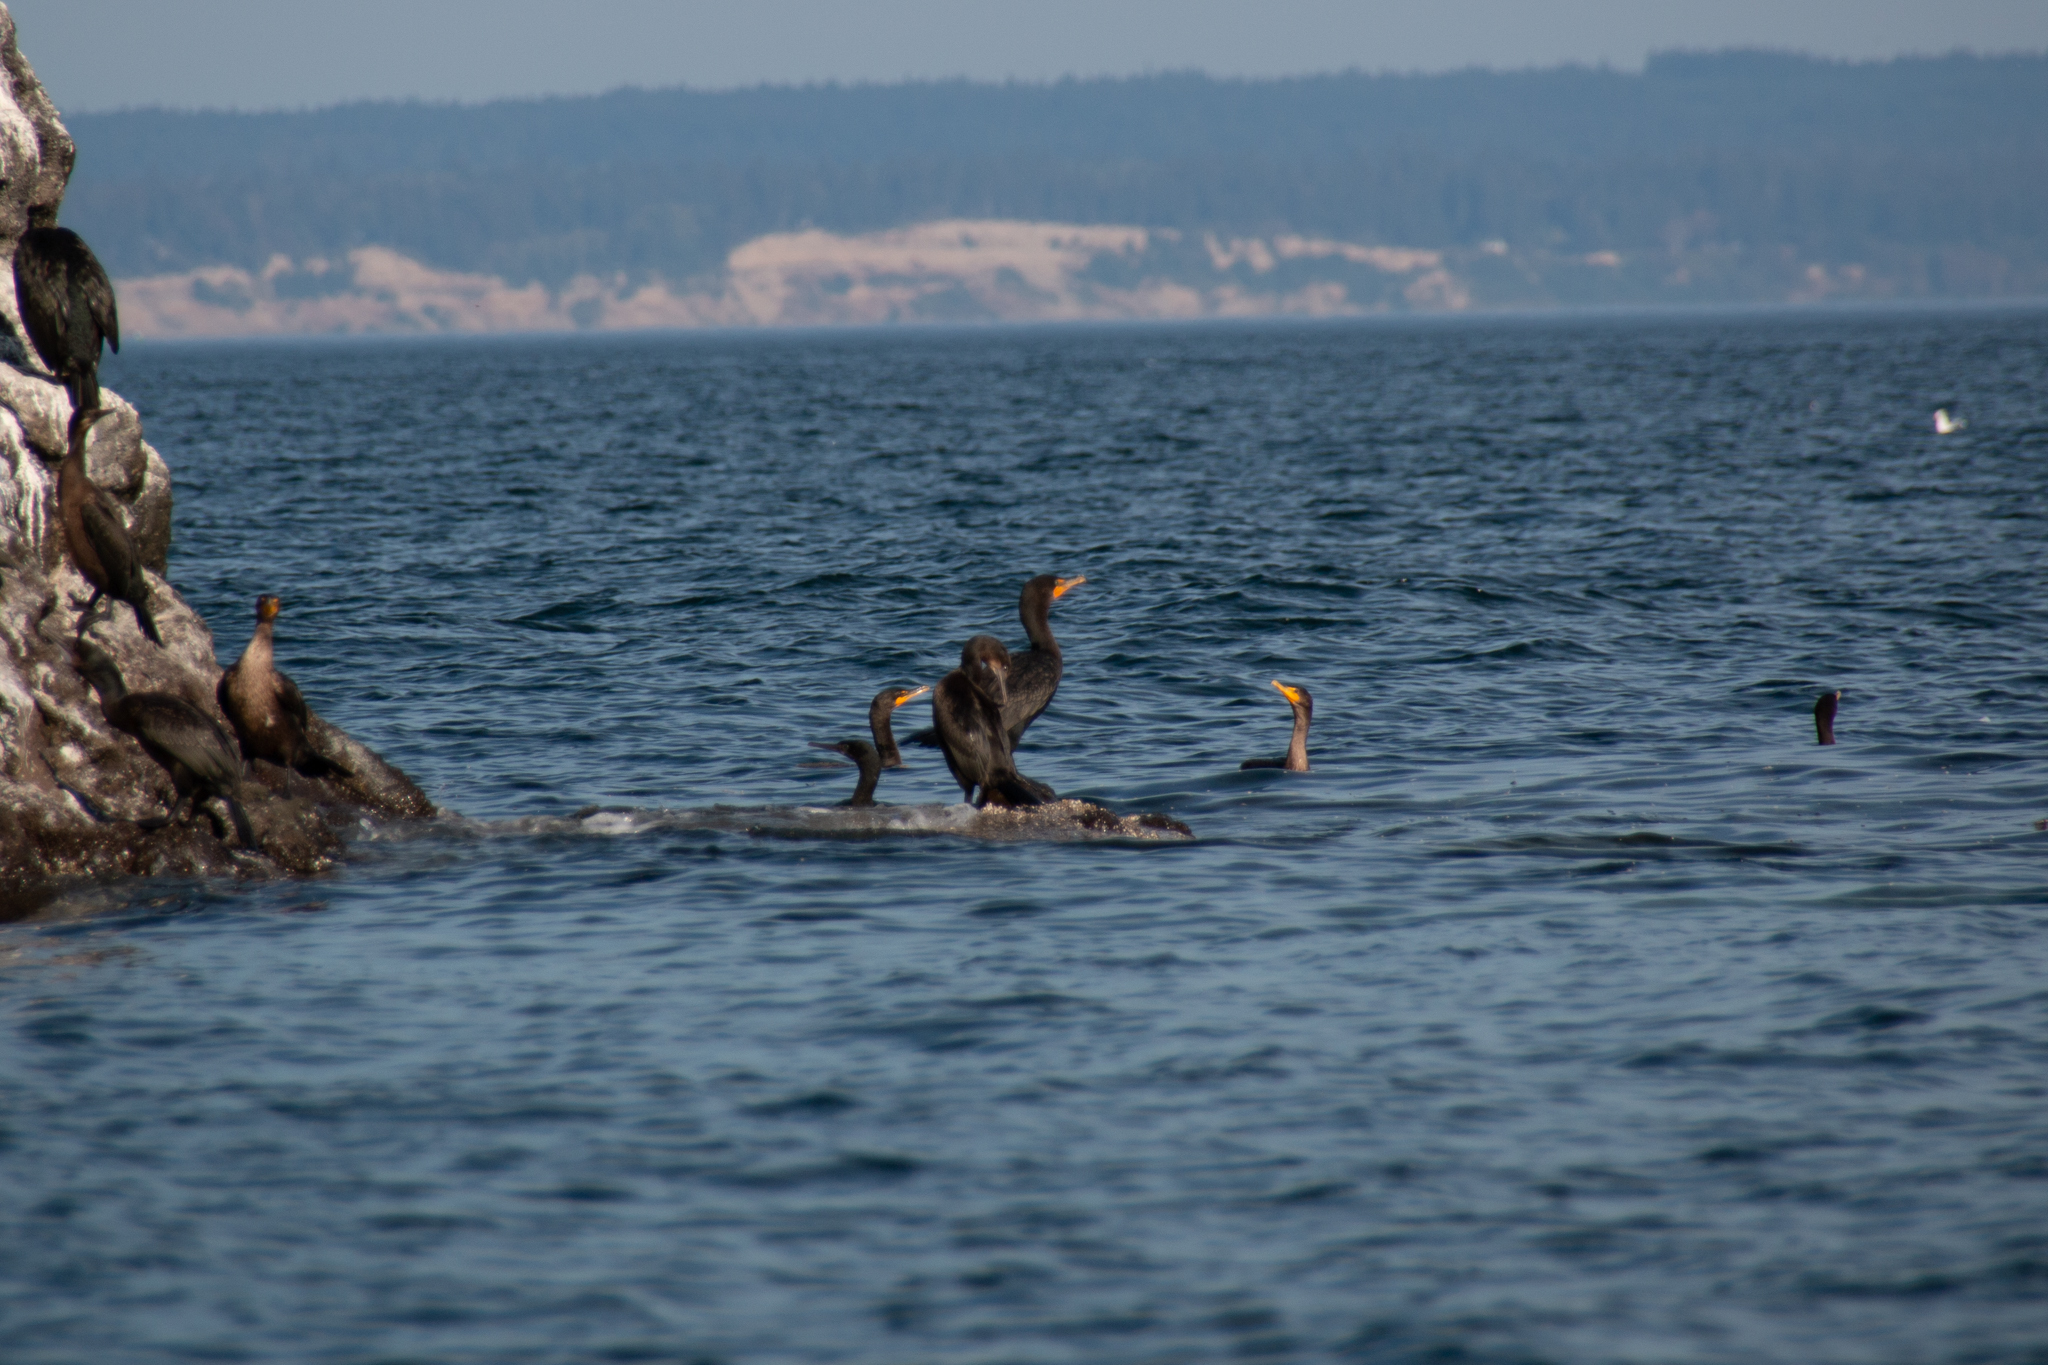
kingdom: Animalia
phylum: Chordata
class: Aves
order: Suliformes
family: Phalacrocoracidae
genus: Phalacrocorax
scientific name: Phalacrocorax auritus
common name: Double-crested cormorant
